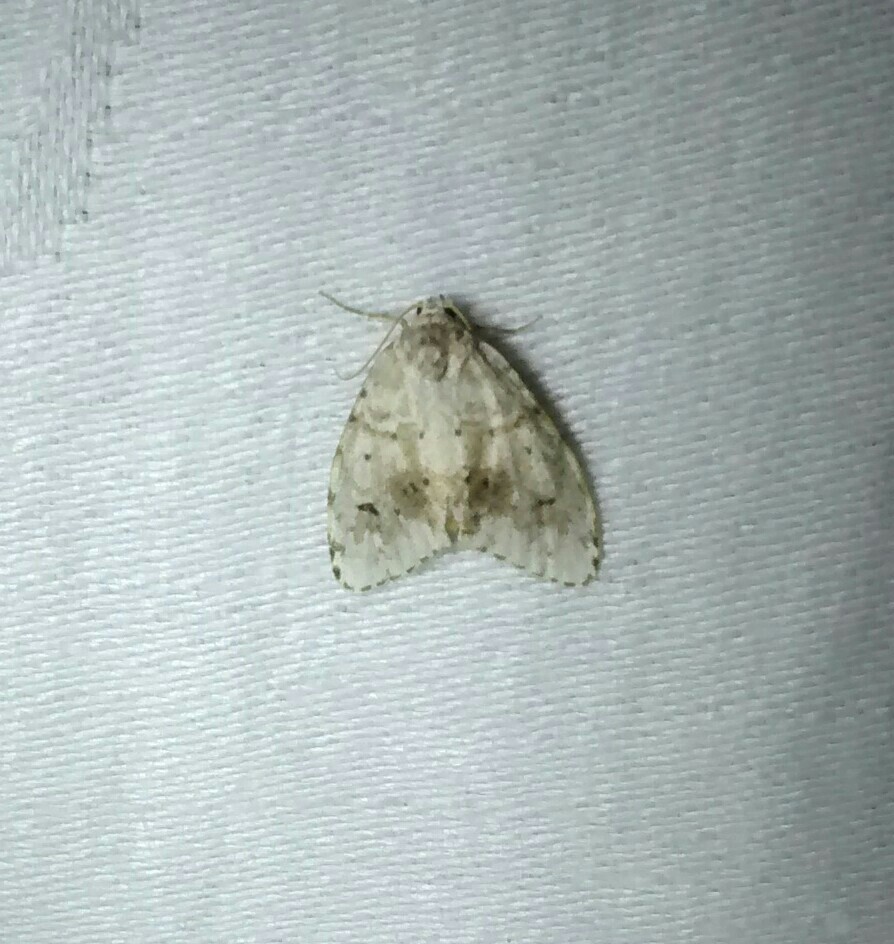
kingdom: Animalia
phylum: Arthropoda
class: Insecta
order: Lepidoptera
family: Erebidae
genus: Clemensia
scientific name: Clemensia albata
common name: Little white lichen moth
